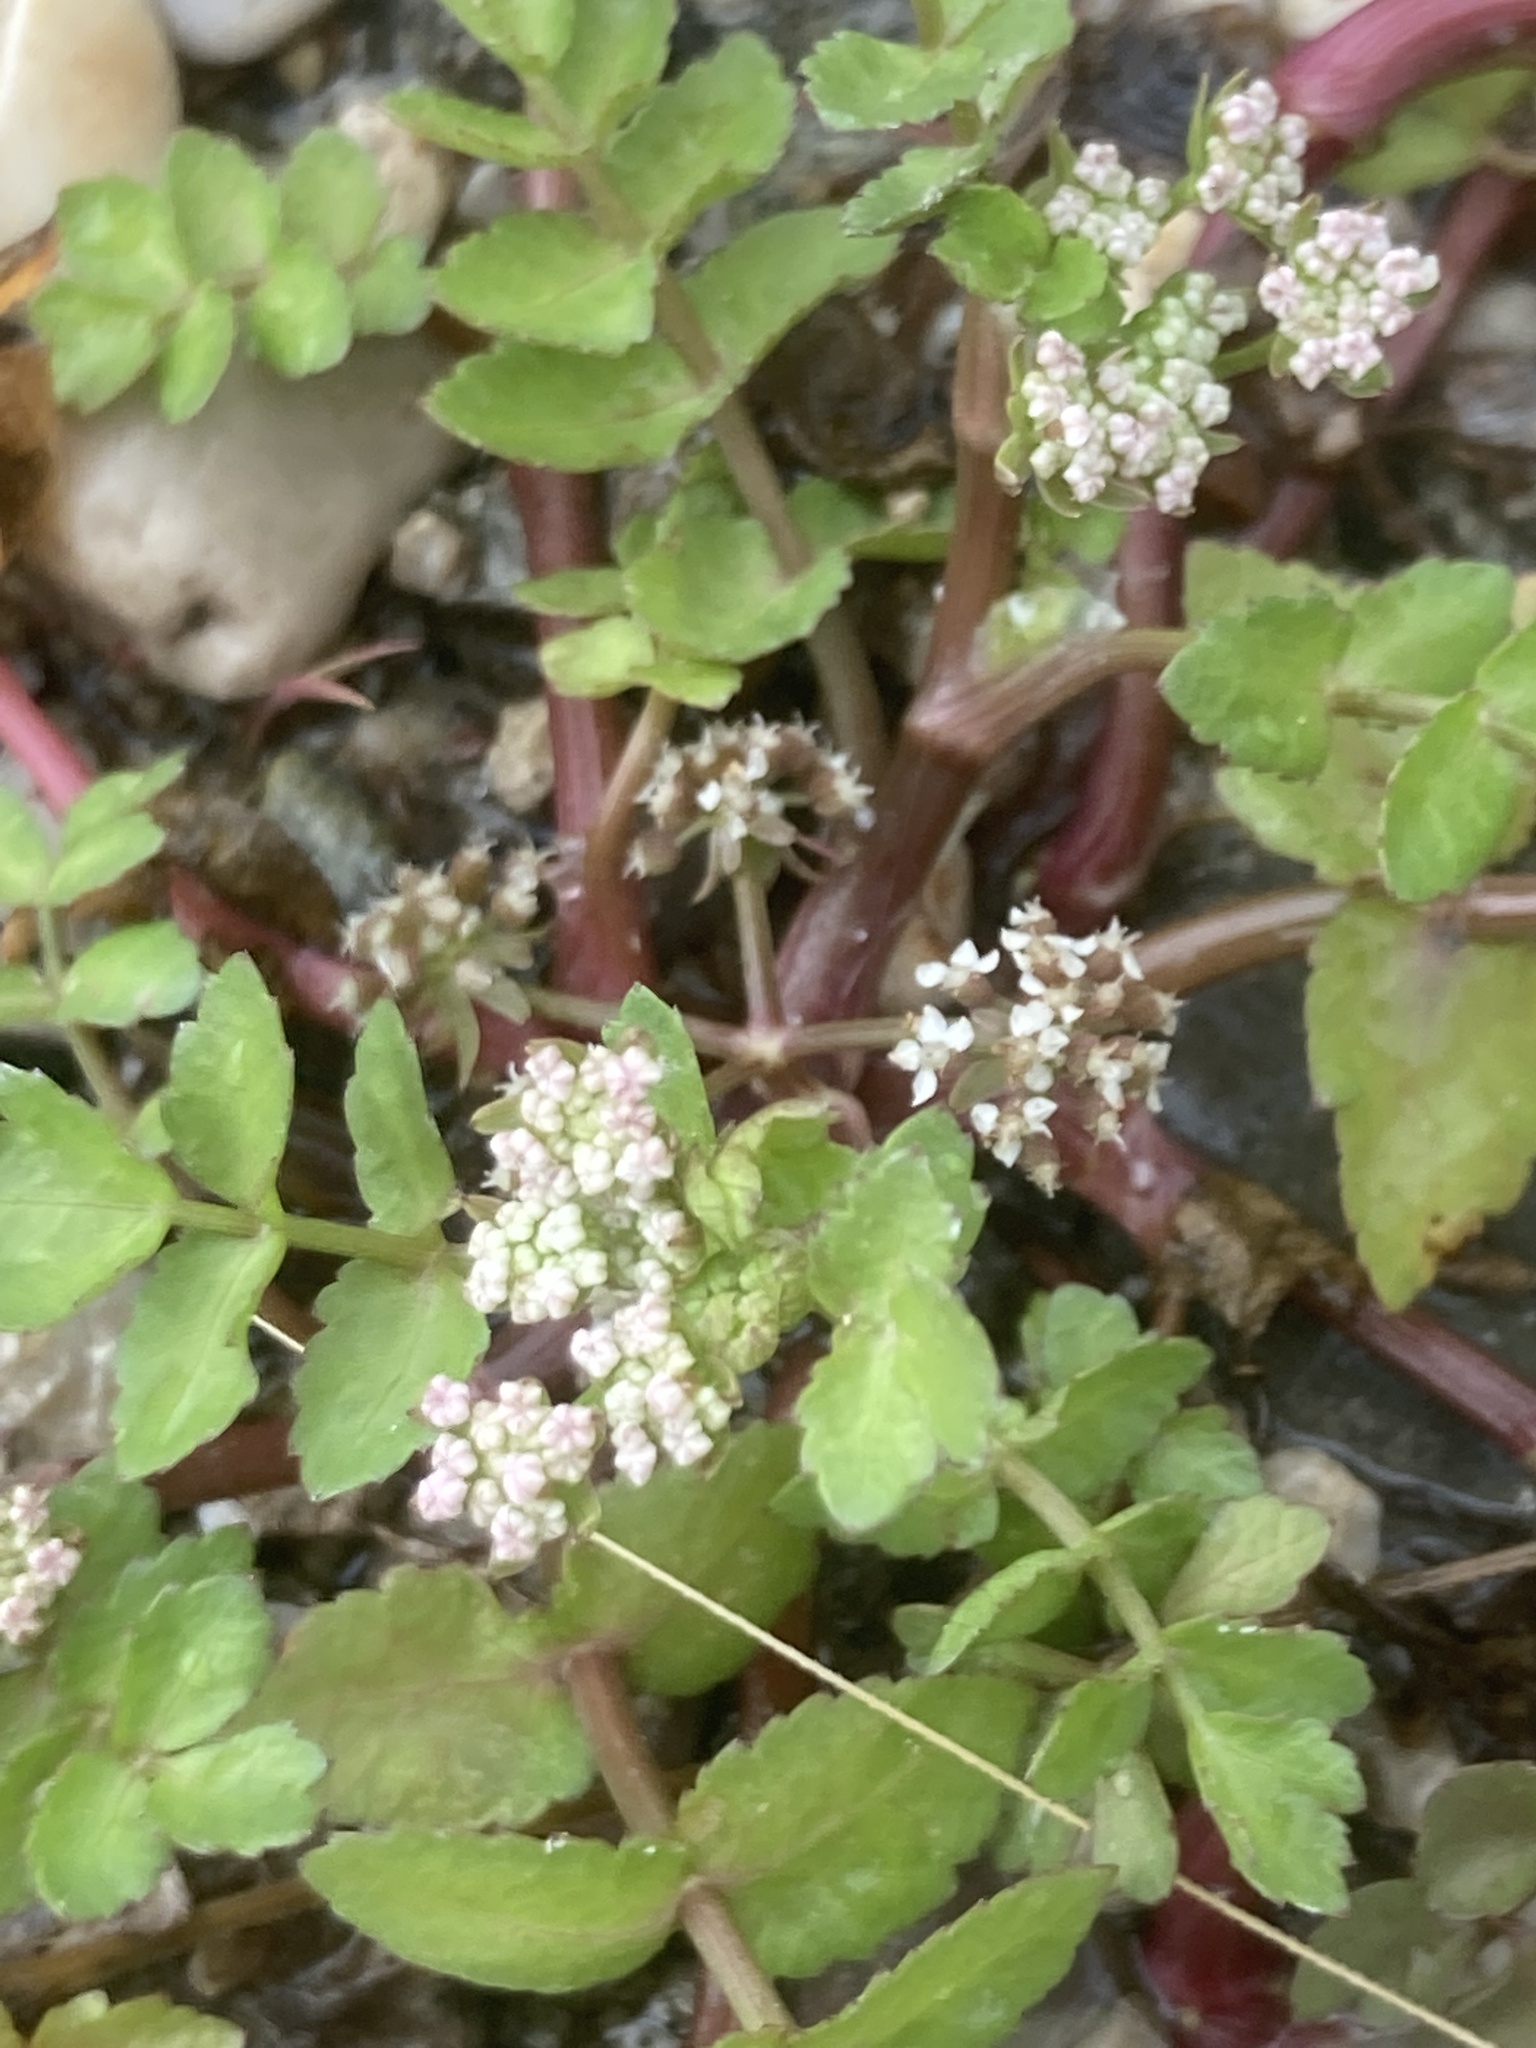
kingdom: Plantae
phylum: Tracheophyta
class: Magnoliopsida
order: Apiales
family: Apiaceae
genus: Helosciadium
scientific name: Helosciadium nodiflorum
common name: Fool's-watercress
